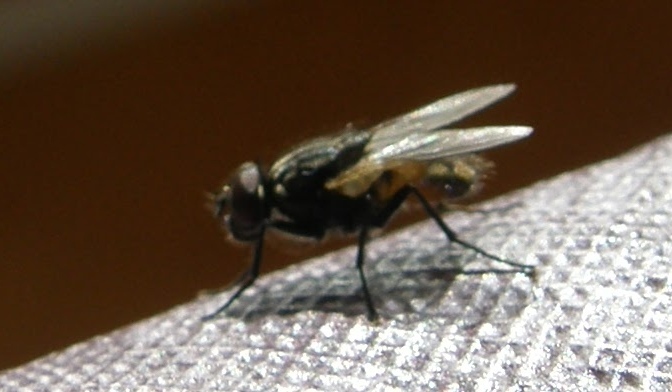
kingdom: Animalia
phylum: Arthropoda
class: Insecta
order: Diptera
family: Muscidae
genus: Musca
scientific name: Musca domestica
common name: House fly
